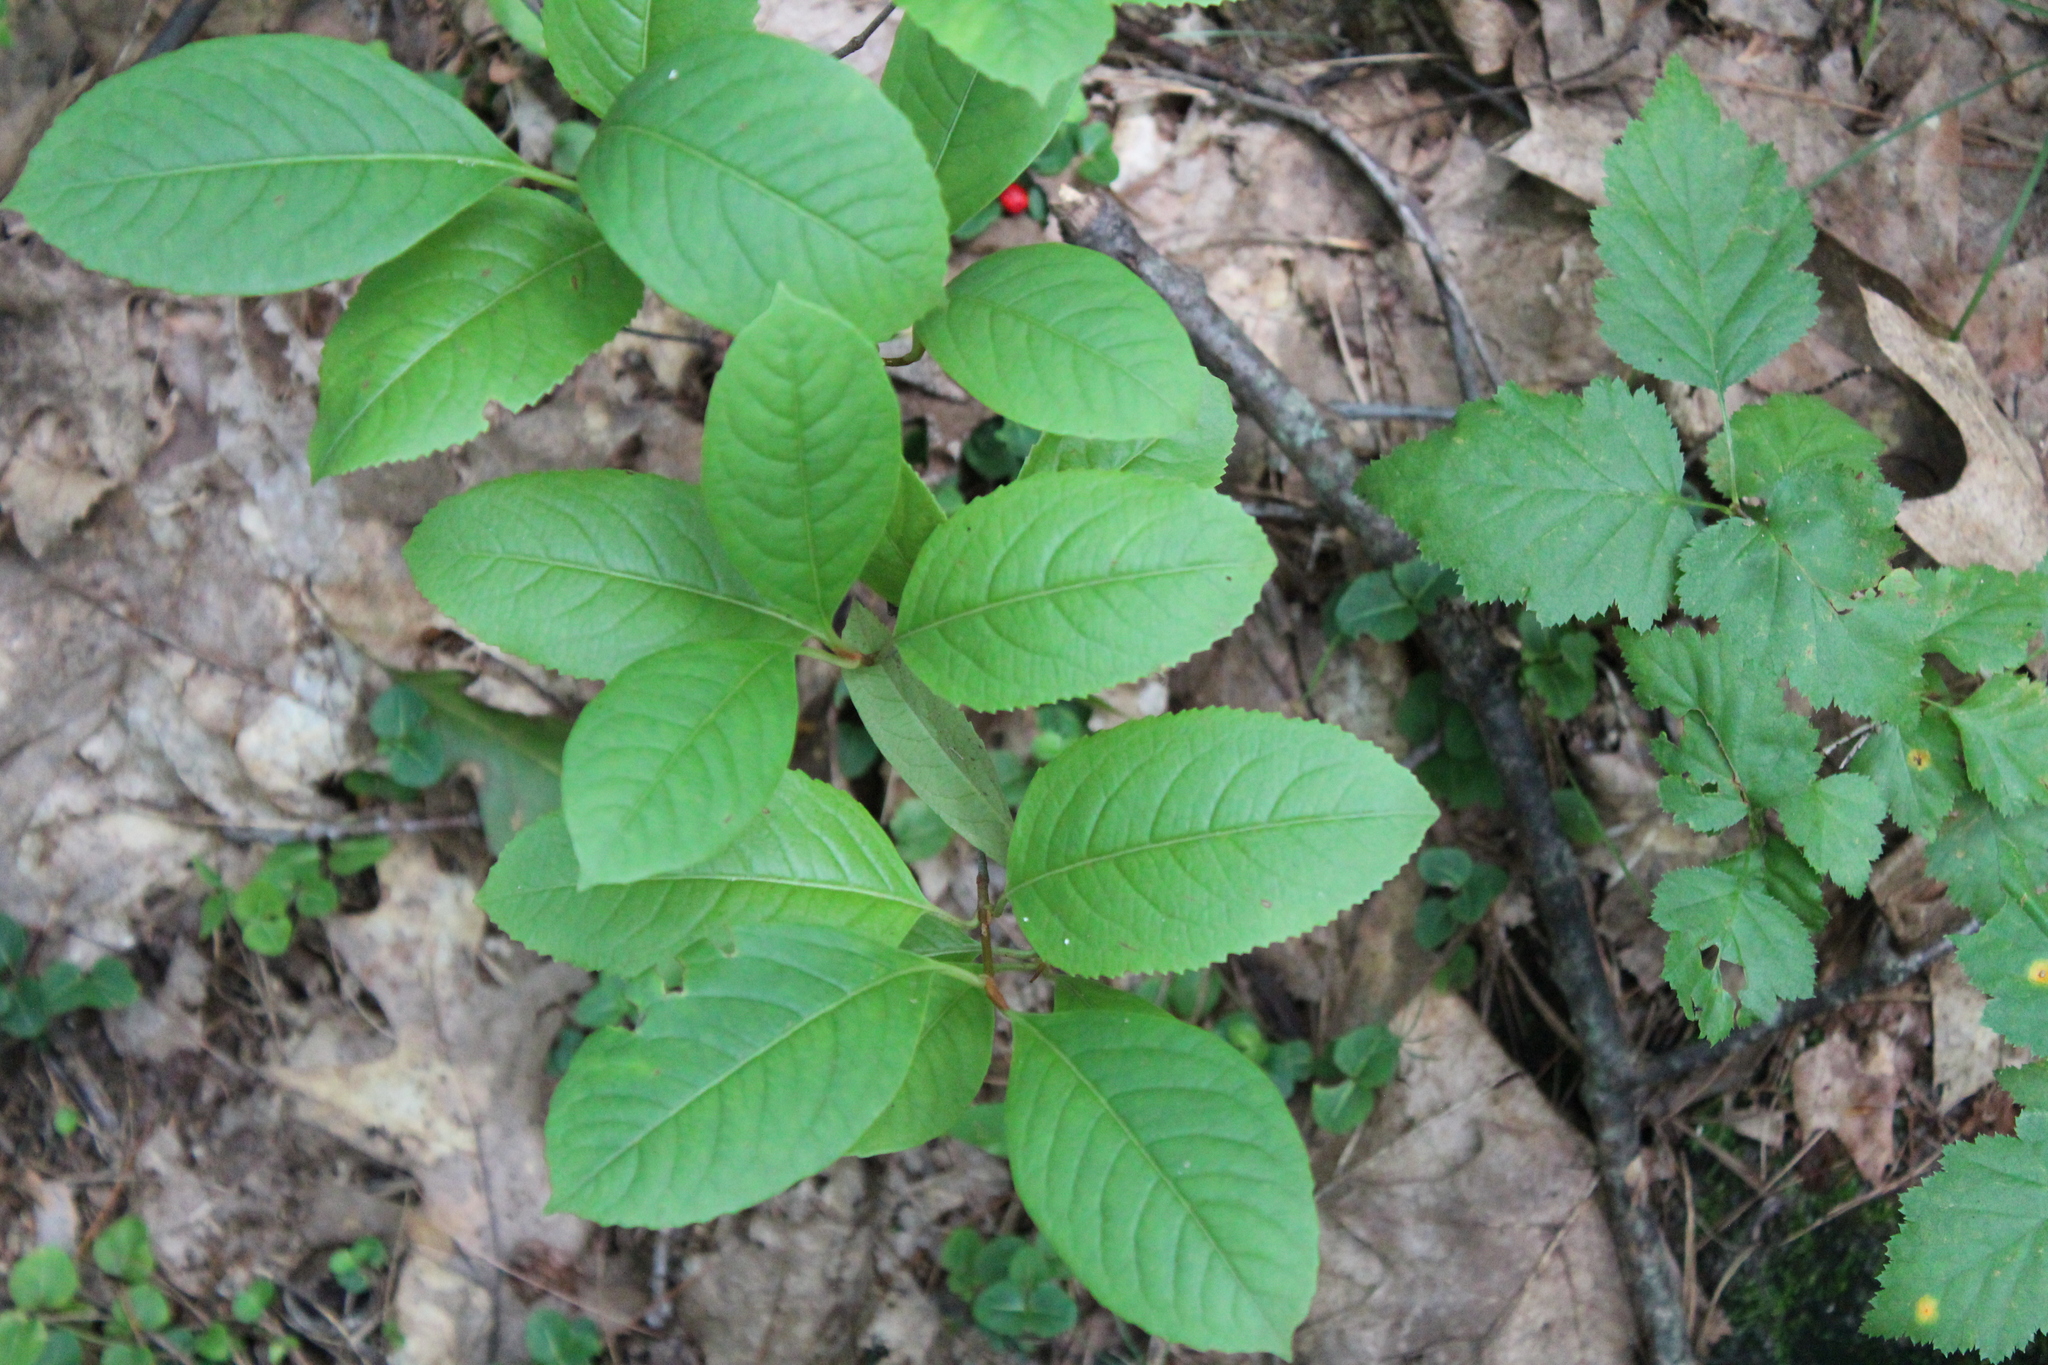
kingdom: Plantae
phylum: Tracheophyta
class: Magnoliopsida
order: Dipsacales
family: Viburnaceae
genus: Viburnum
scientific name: Viburnum cassinoides
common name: Swamp haw
